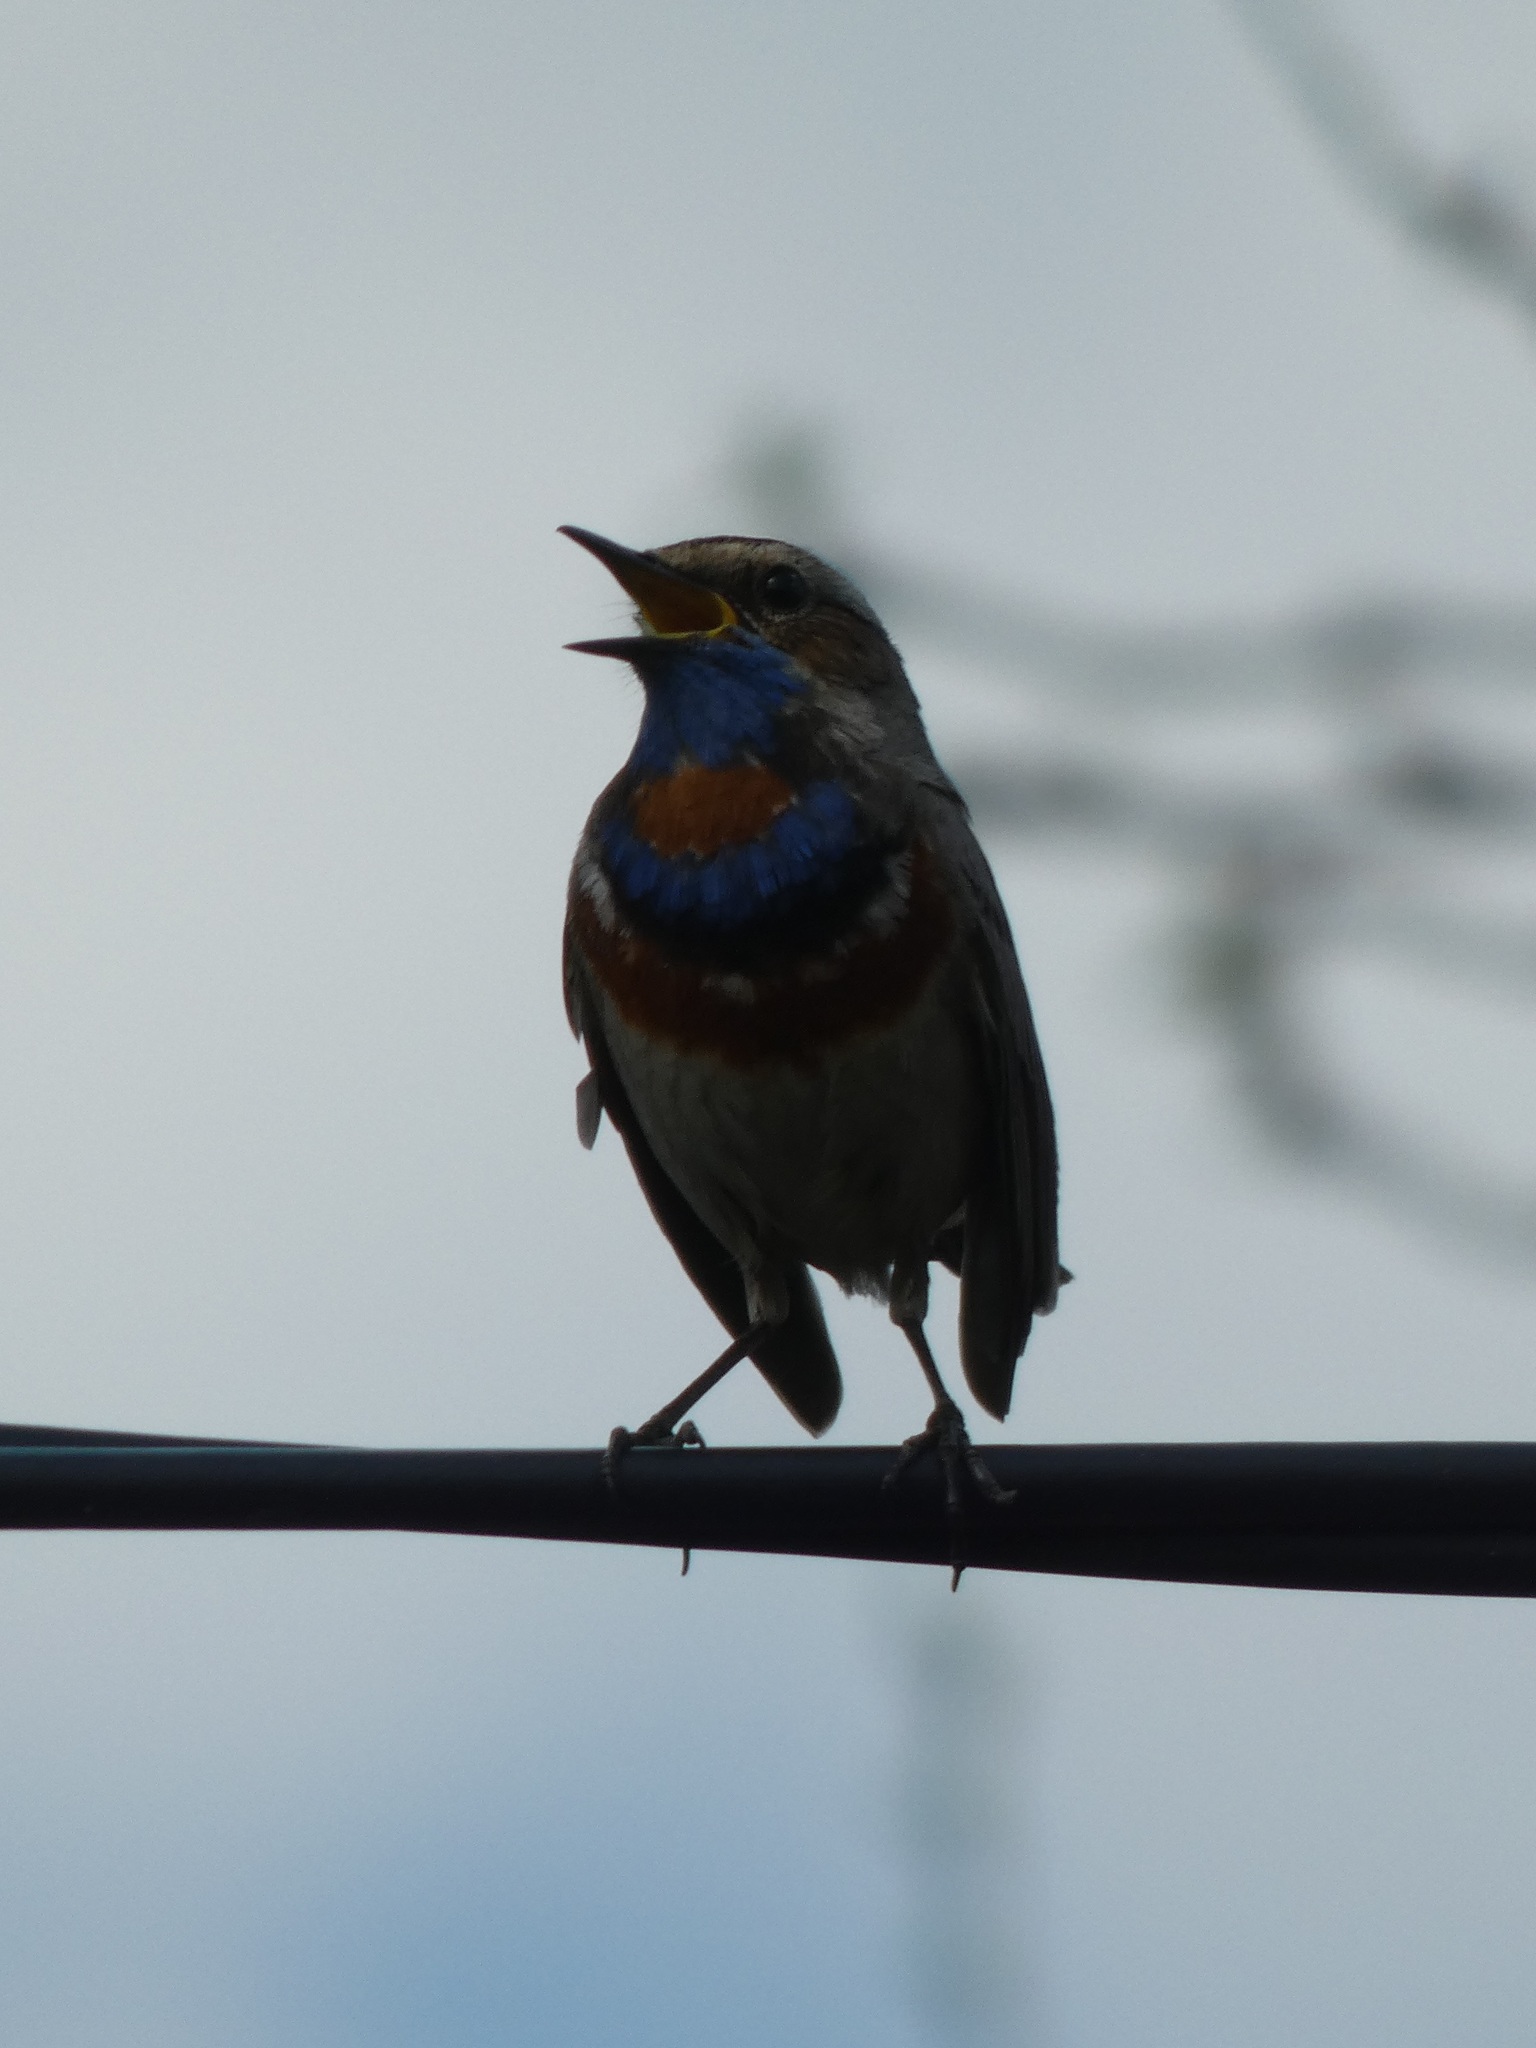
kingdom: Animalia
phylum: Chordata
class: Aves
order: Passeriformes
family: Muscicapidae
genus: Luscinia
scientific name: Luscinia svecica
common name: Bluethroat
